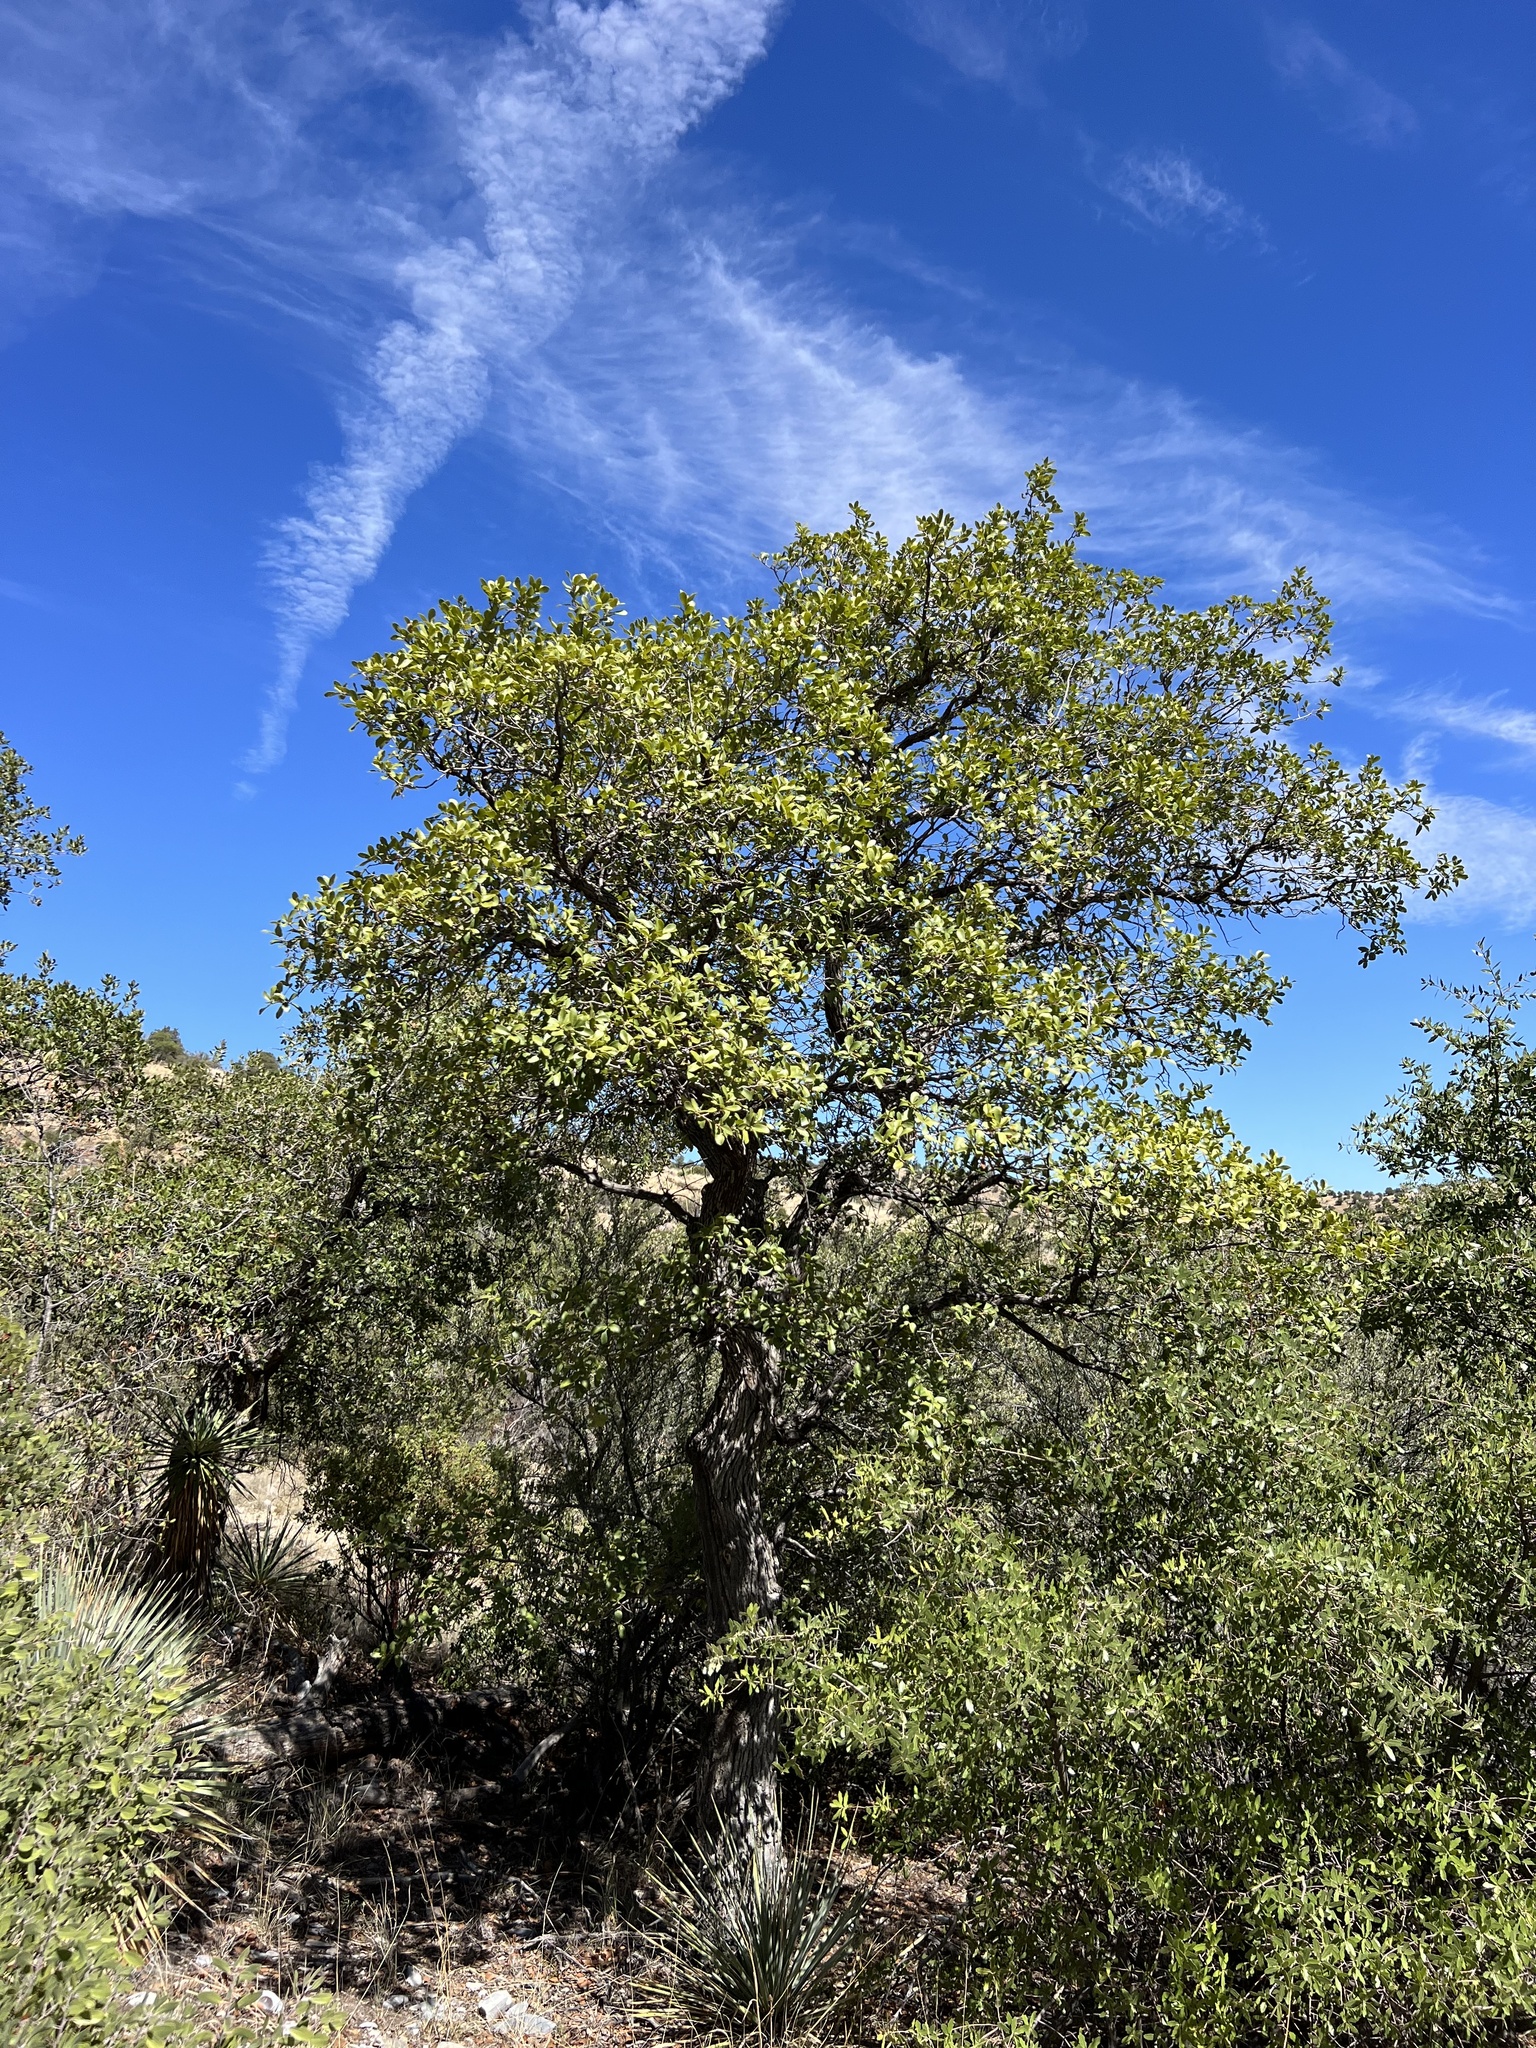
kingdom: Plantae
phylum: Tracheophyta
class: Magnoliopsida
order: Fagales
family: Fagaceae
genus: Quercus
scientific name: Quercus arizonica
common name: Arizona white oak
